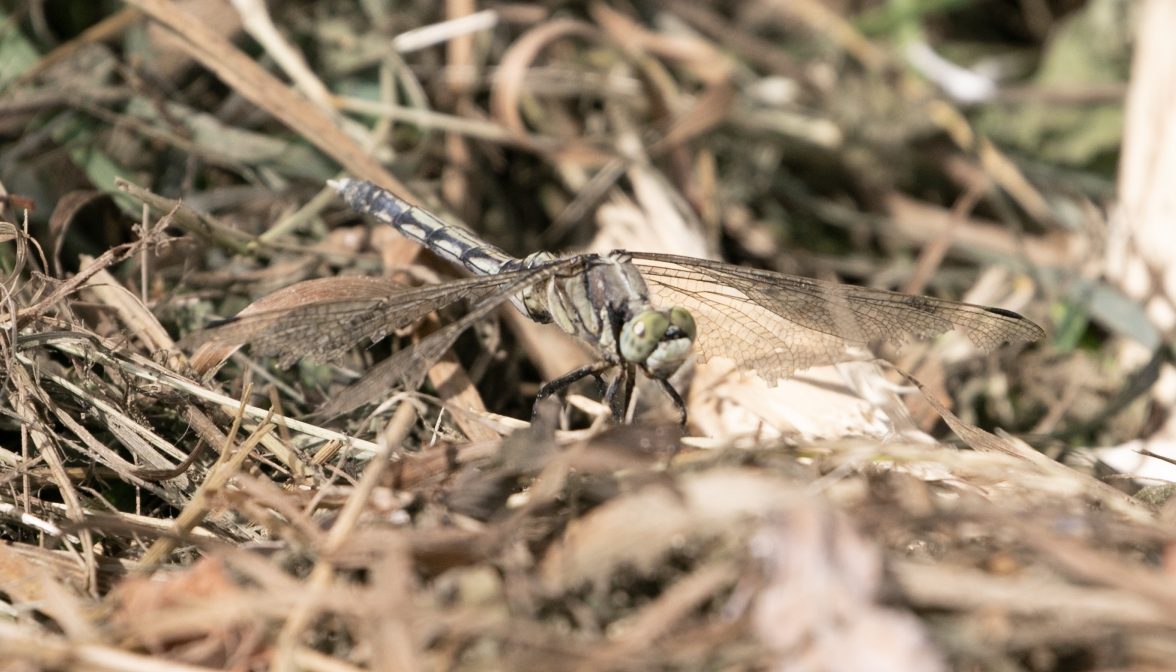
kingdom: Animalia
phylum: Arthropoda
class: Insecta
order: Odonata
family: Libellulidae
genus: Orthetrum
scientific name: Orthetrum albistylum
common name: White-tailed skimmer
